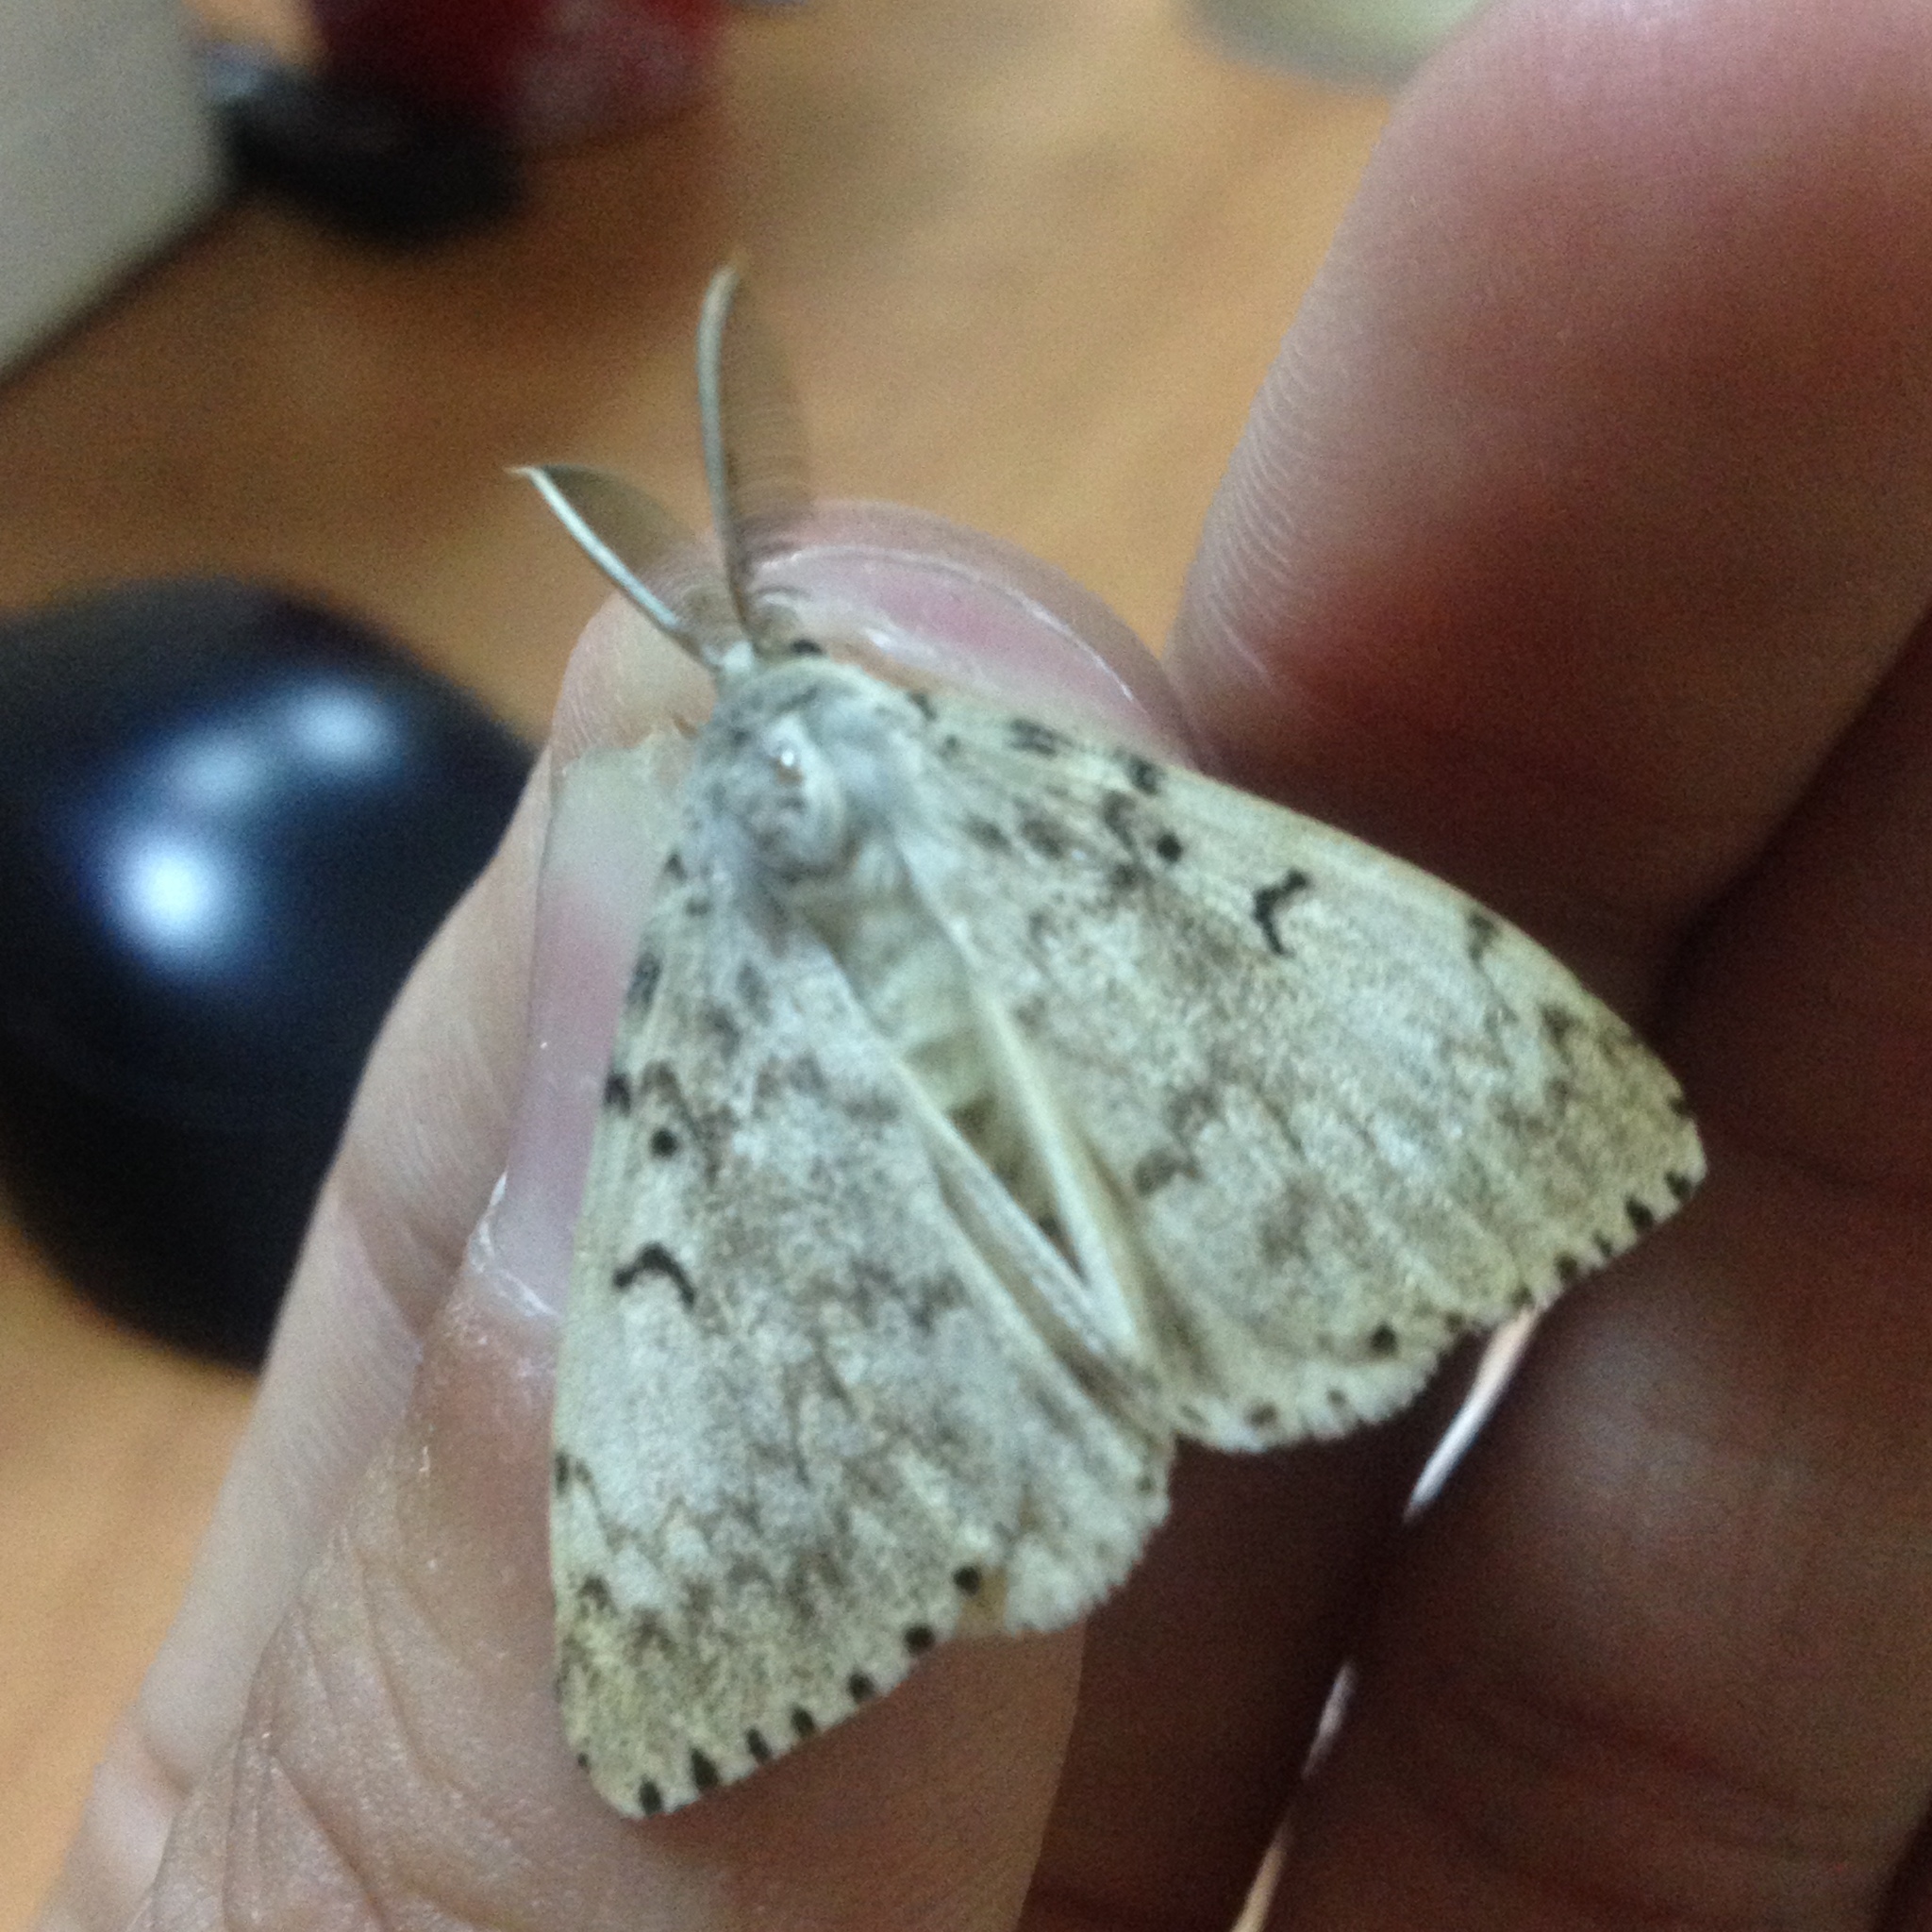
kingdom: Animalia
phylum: Arthropoda
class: Insecta
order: Lepidoptera
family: Erebidae
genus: Lymantria
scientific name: Lymantria dispar
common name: Gypsy moth
